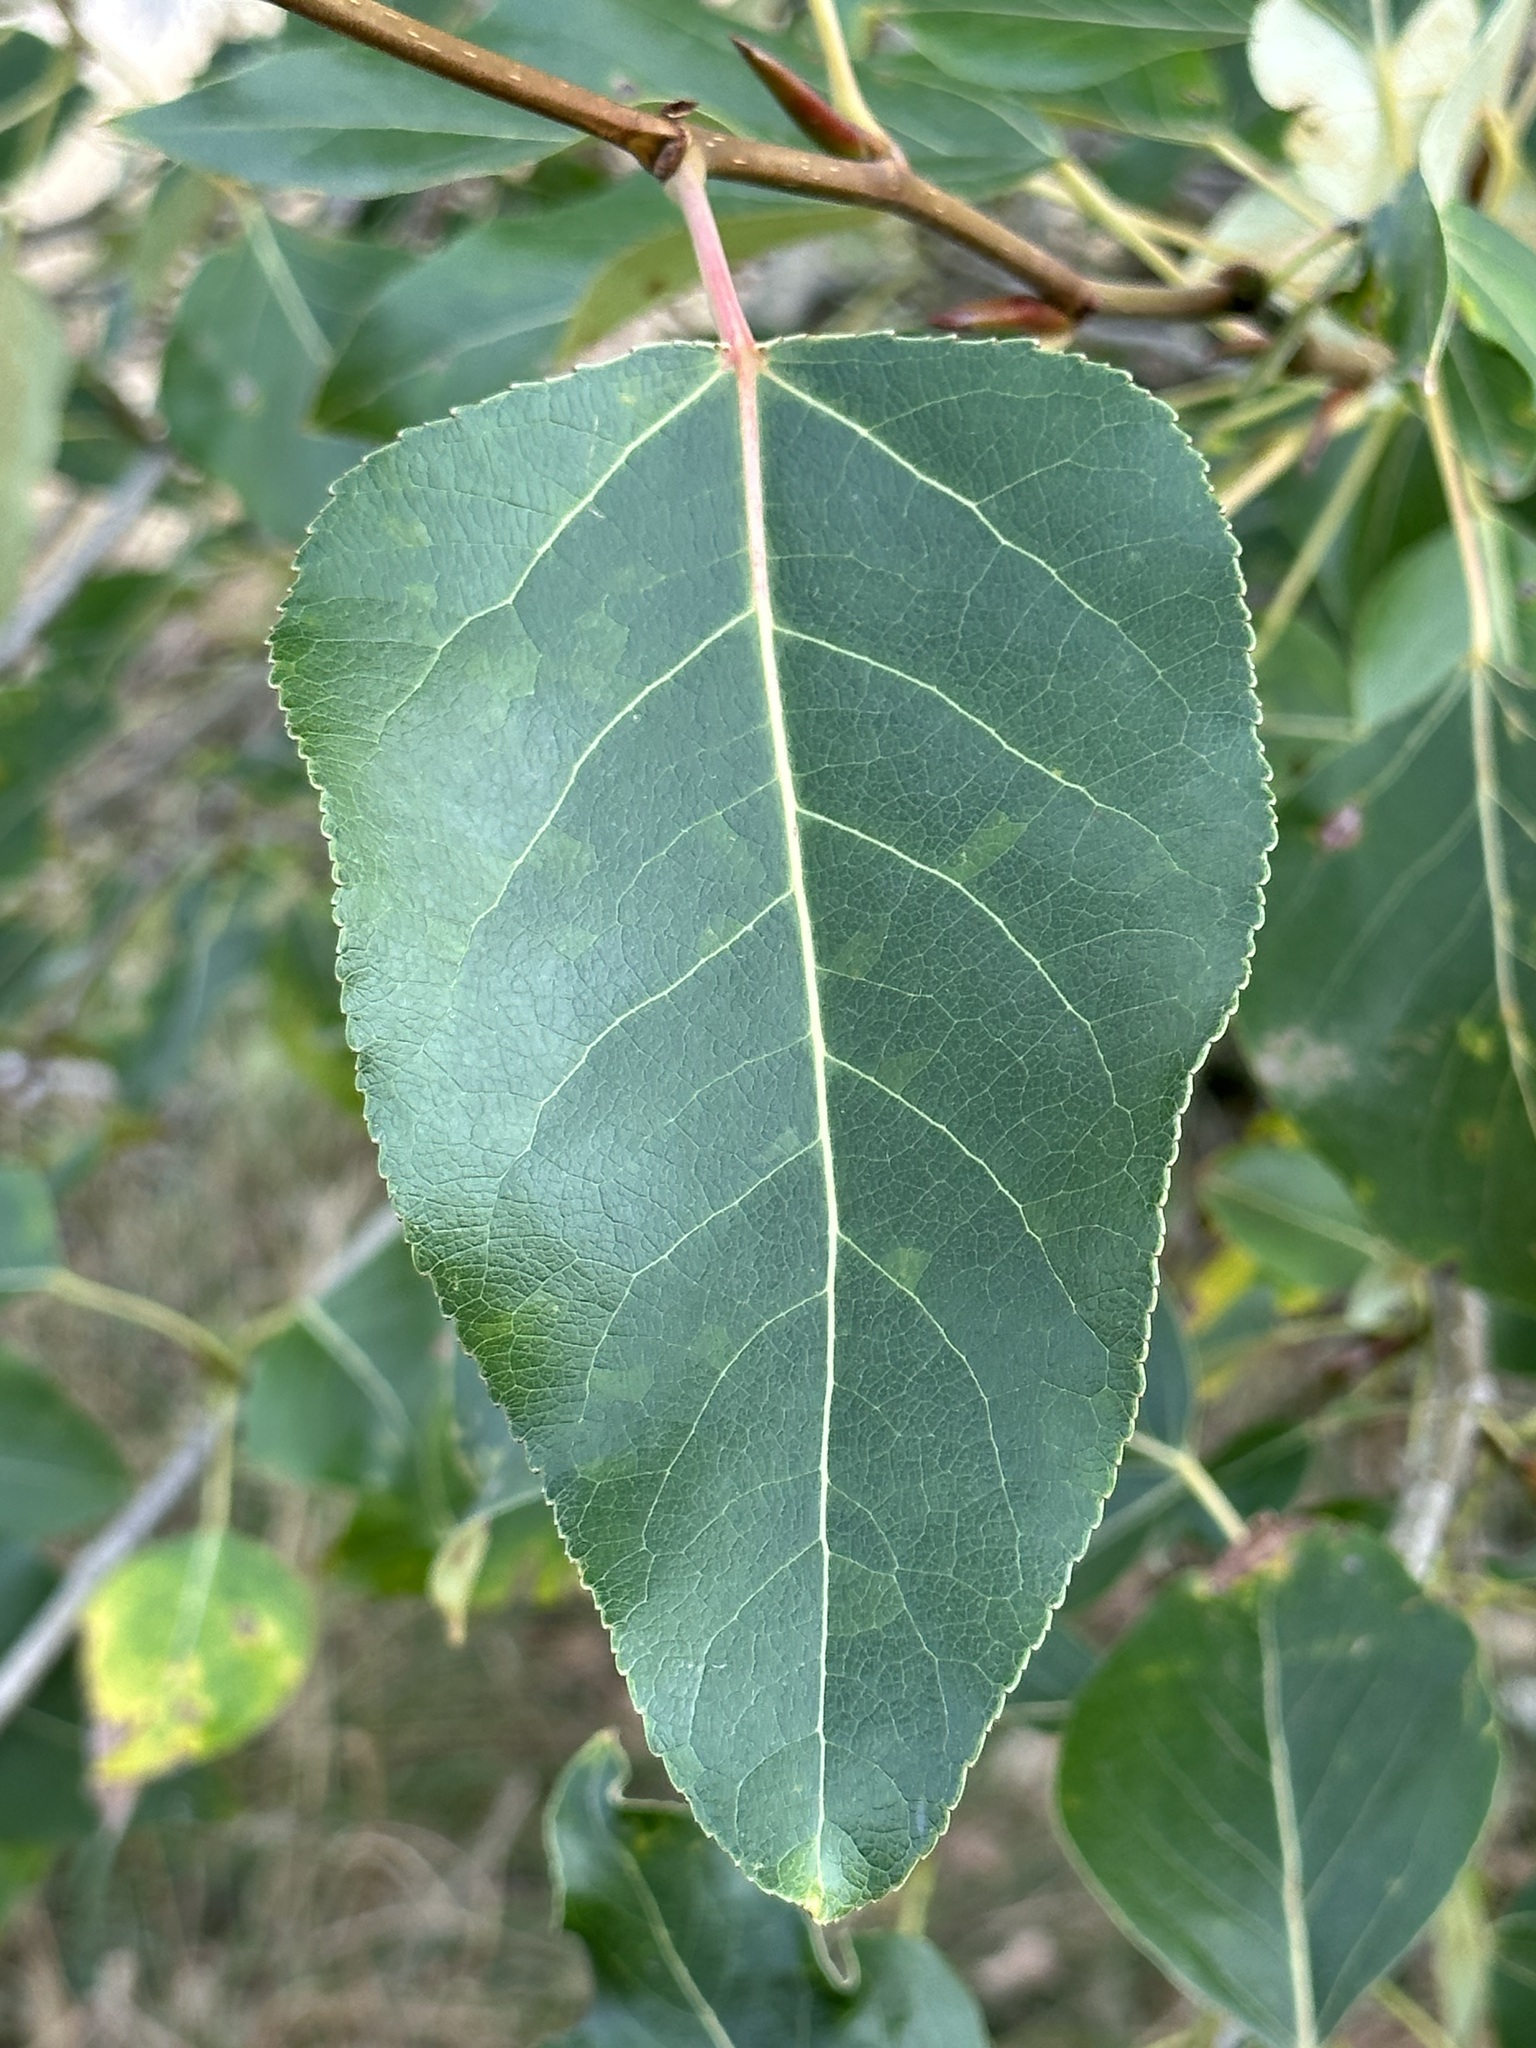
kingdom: Plantae
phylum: Tracheophyta
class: Magnoliopsida
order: Malpighiales
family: Salicaceae
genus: Populus
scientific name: Populus trichocarpa
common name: Black cottonwood
